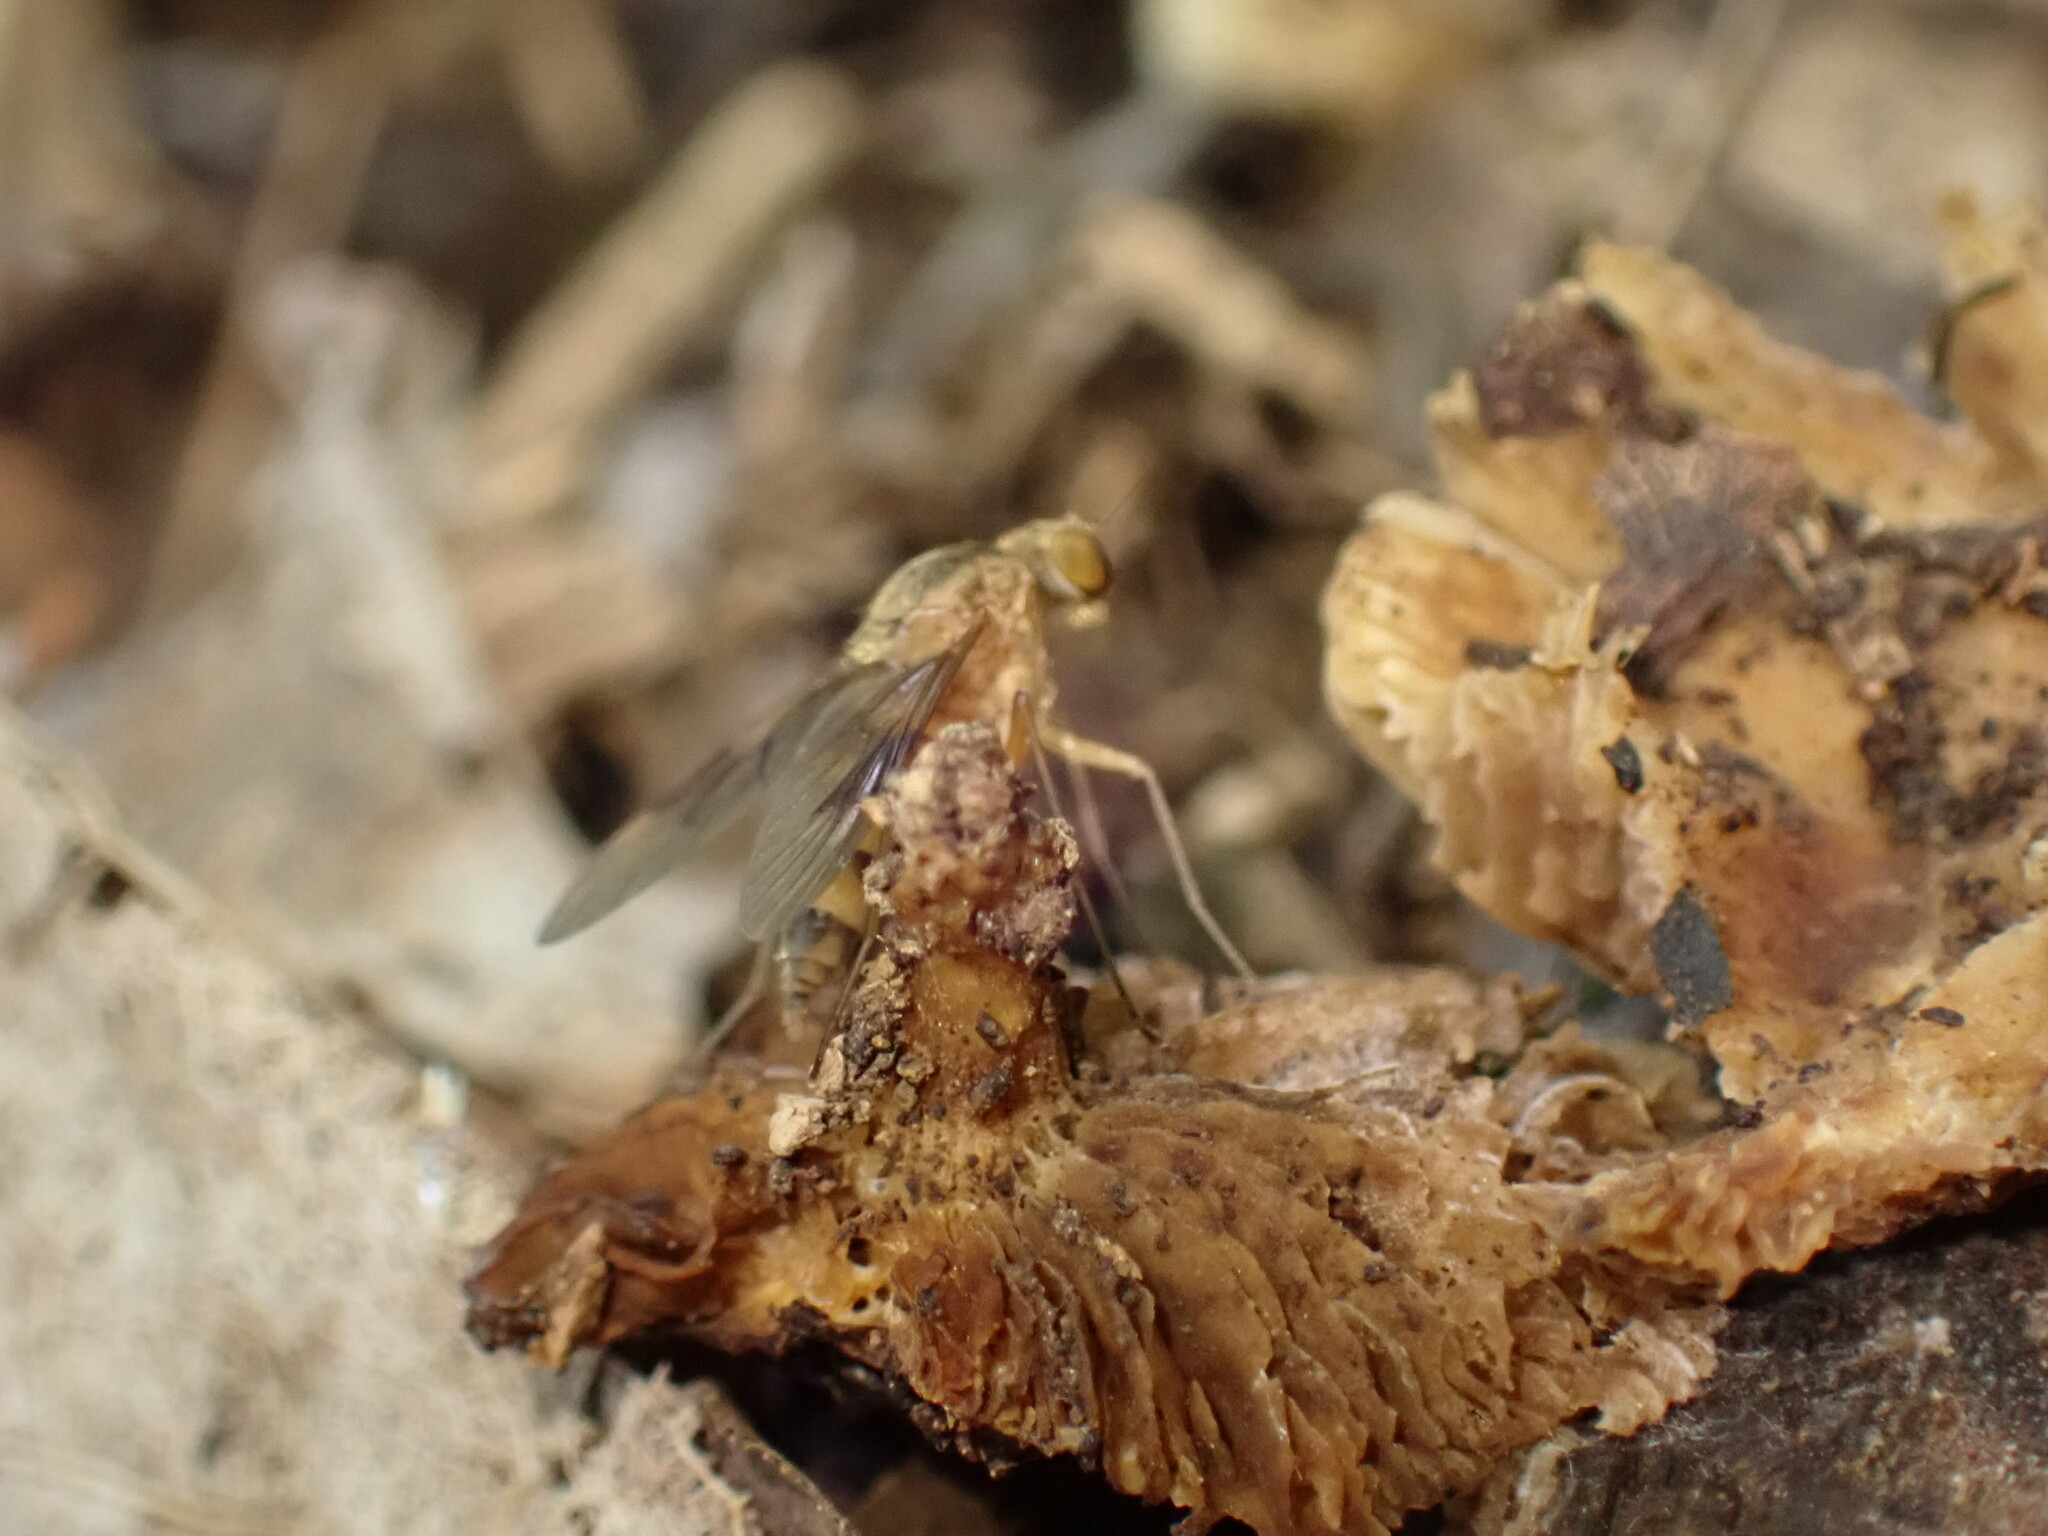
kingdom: Animalia
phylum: Arthropoda
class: Insecta
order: Diptera
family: Rhagionidae
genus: Chrysopilus
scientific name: Chrysopilus quadratus
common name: Quadrate snipe fly
